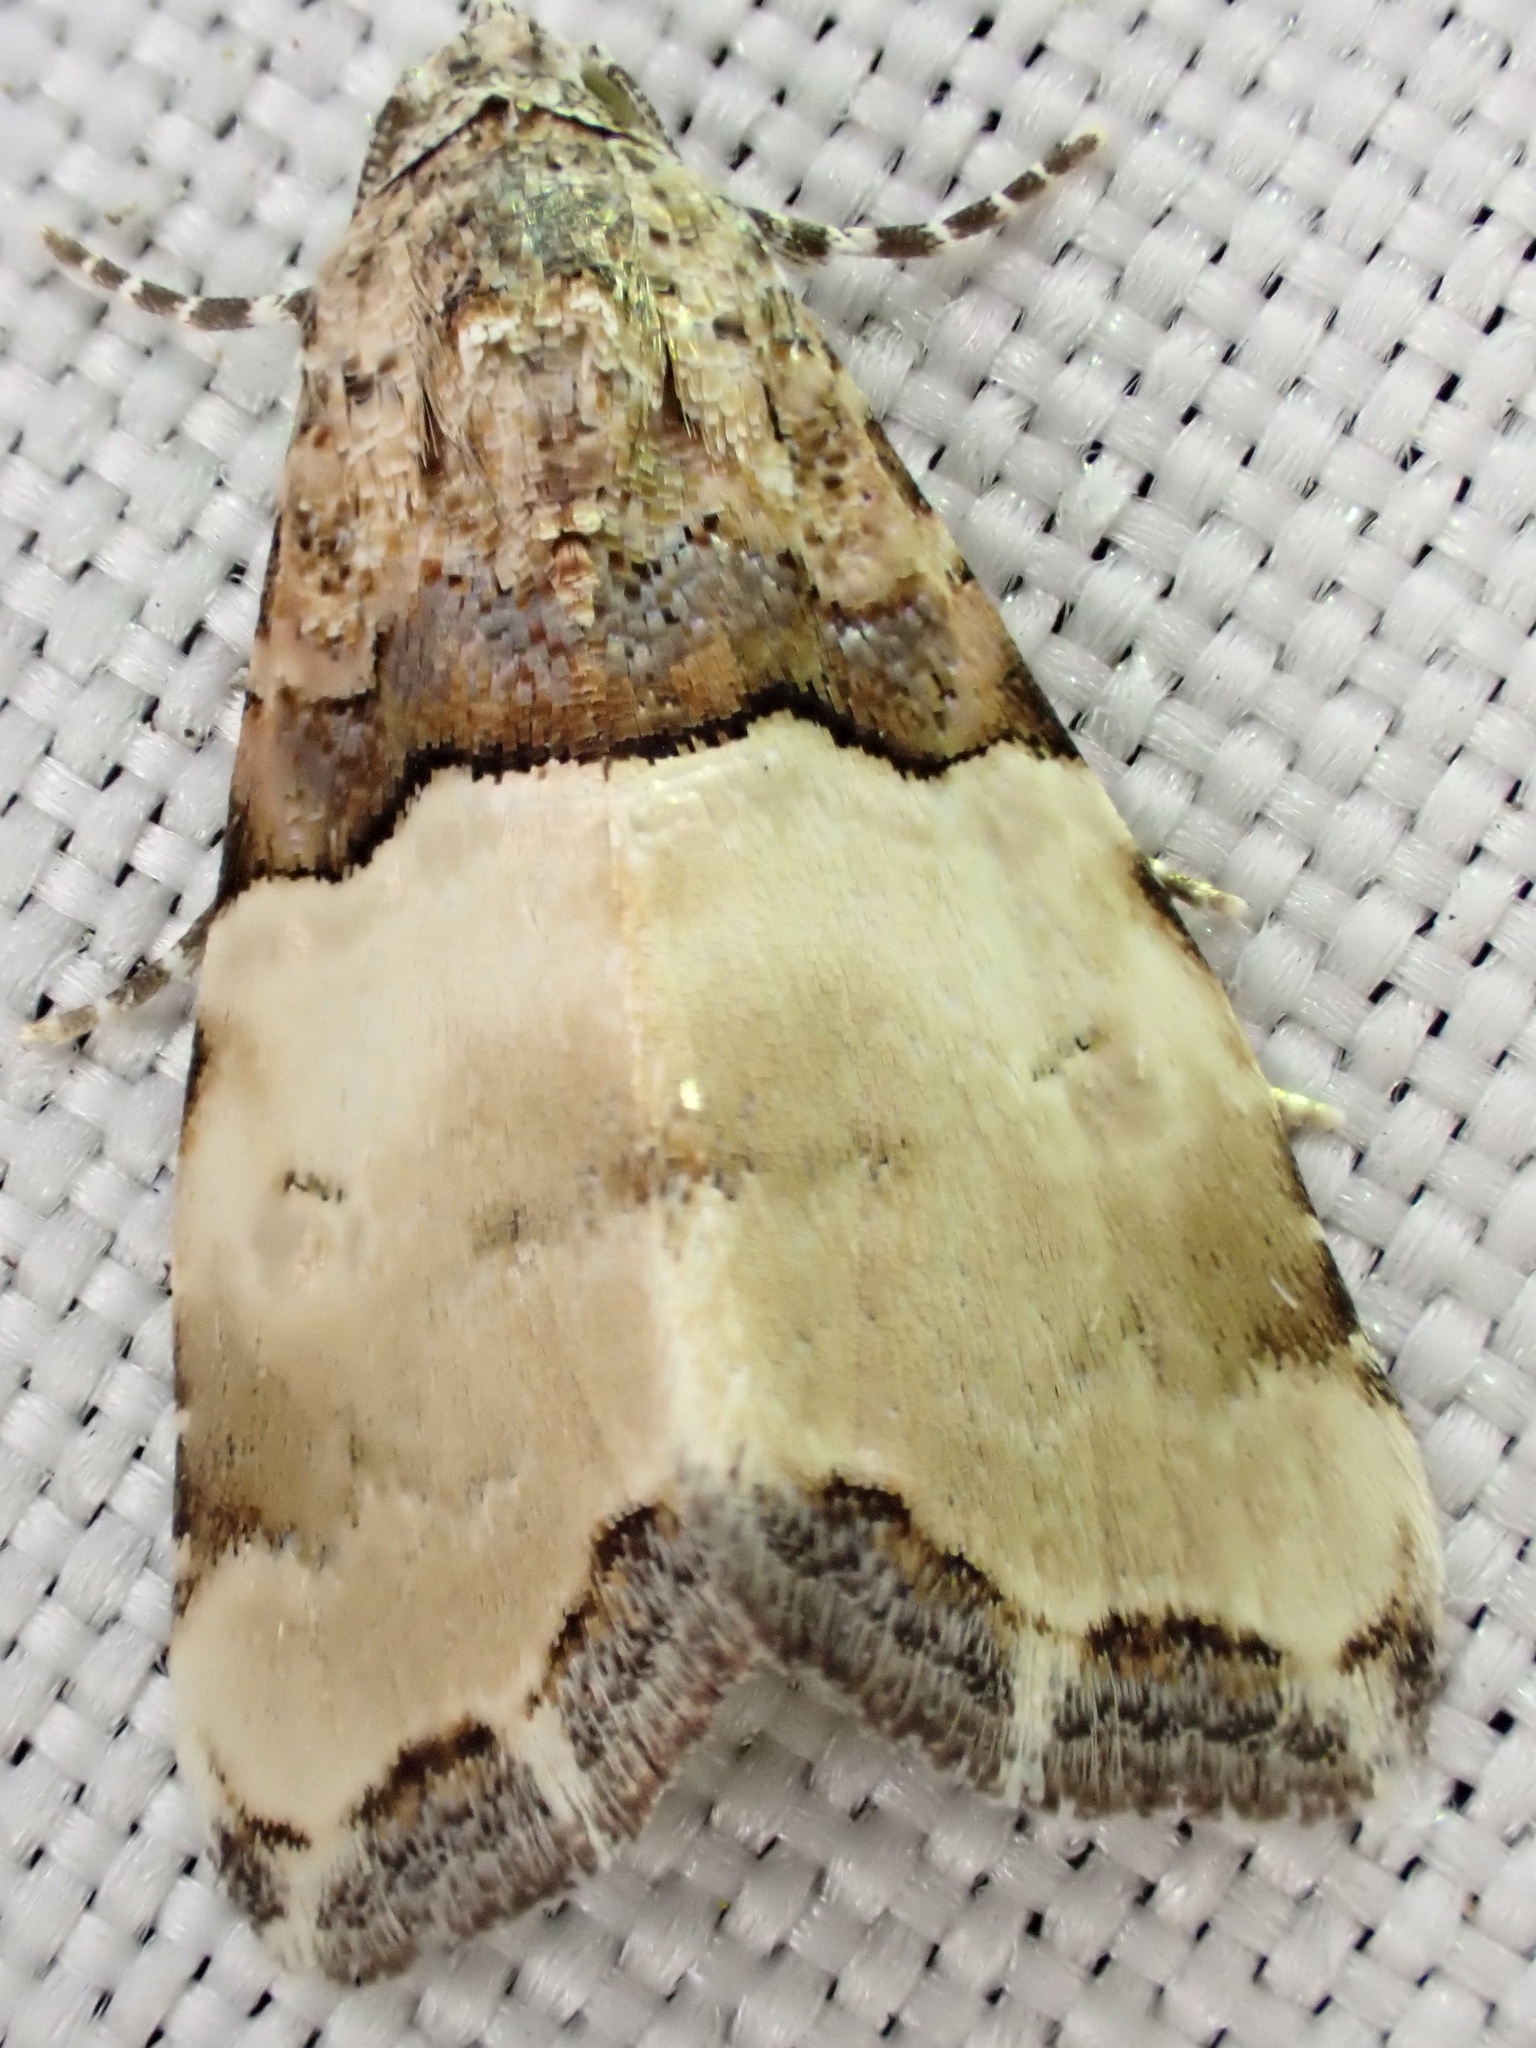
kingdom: Animalia
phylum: Arthropoda
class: Insecta
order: Lepidoptera
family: Noctuidae
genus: Cobubatha
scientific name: Cobubatha dividua
